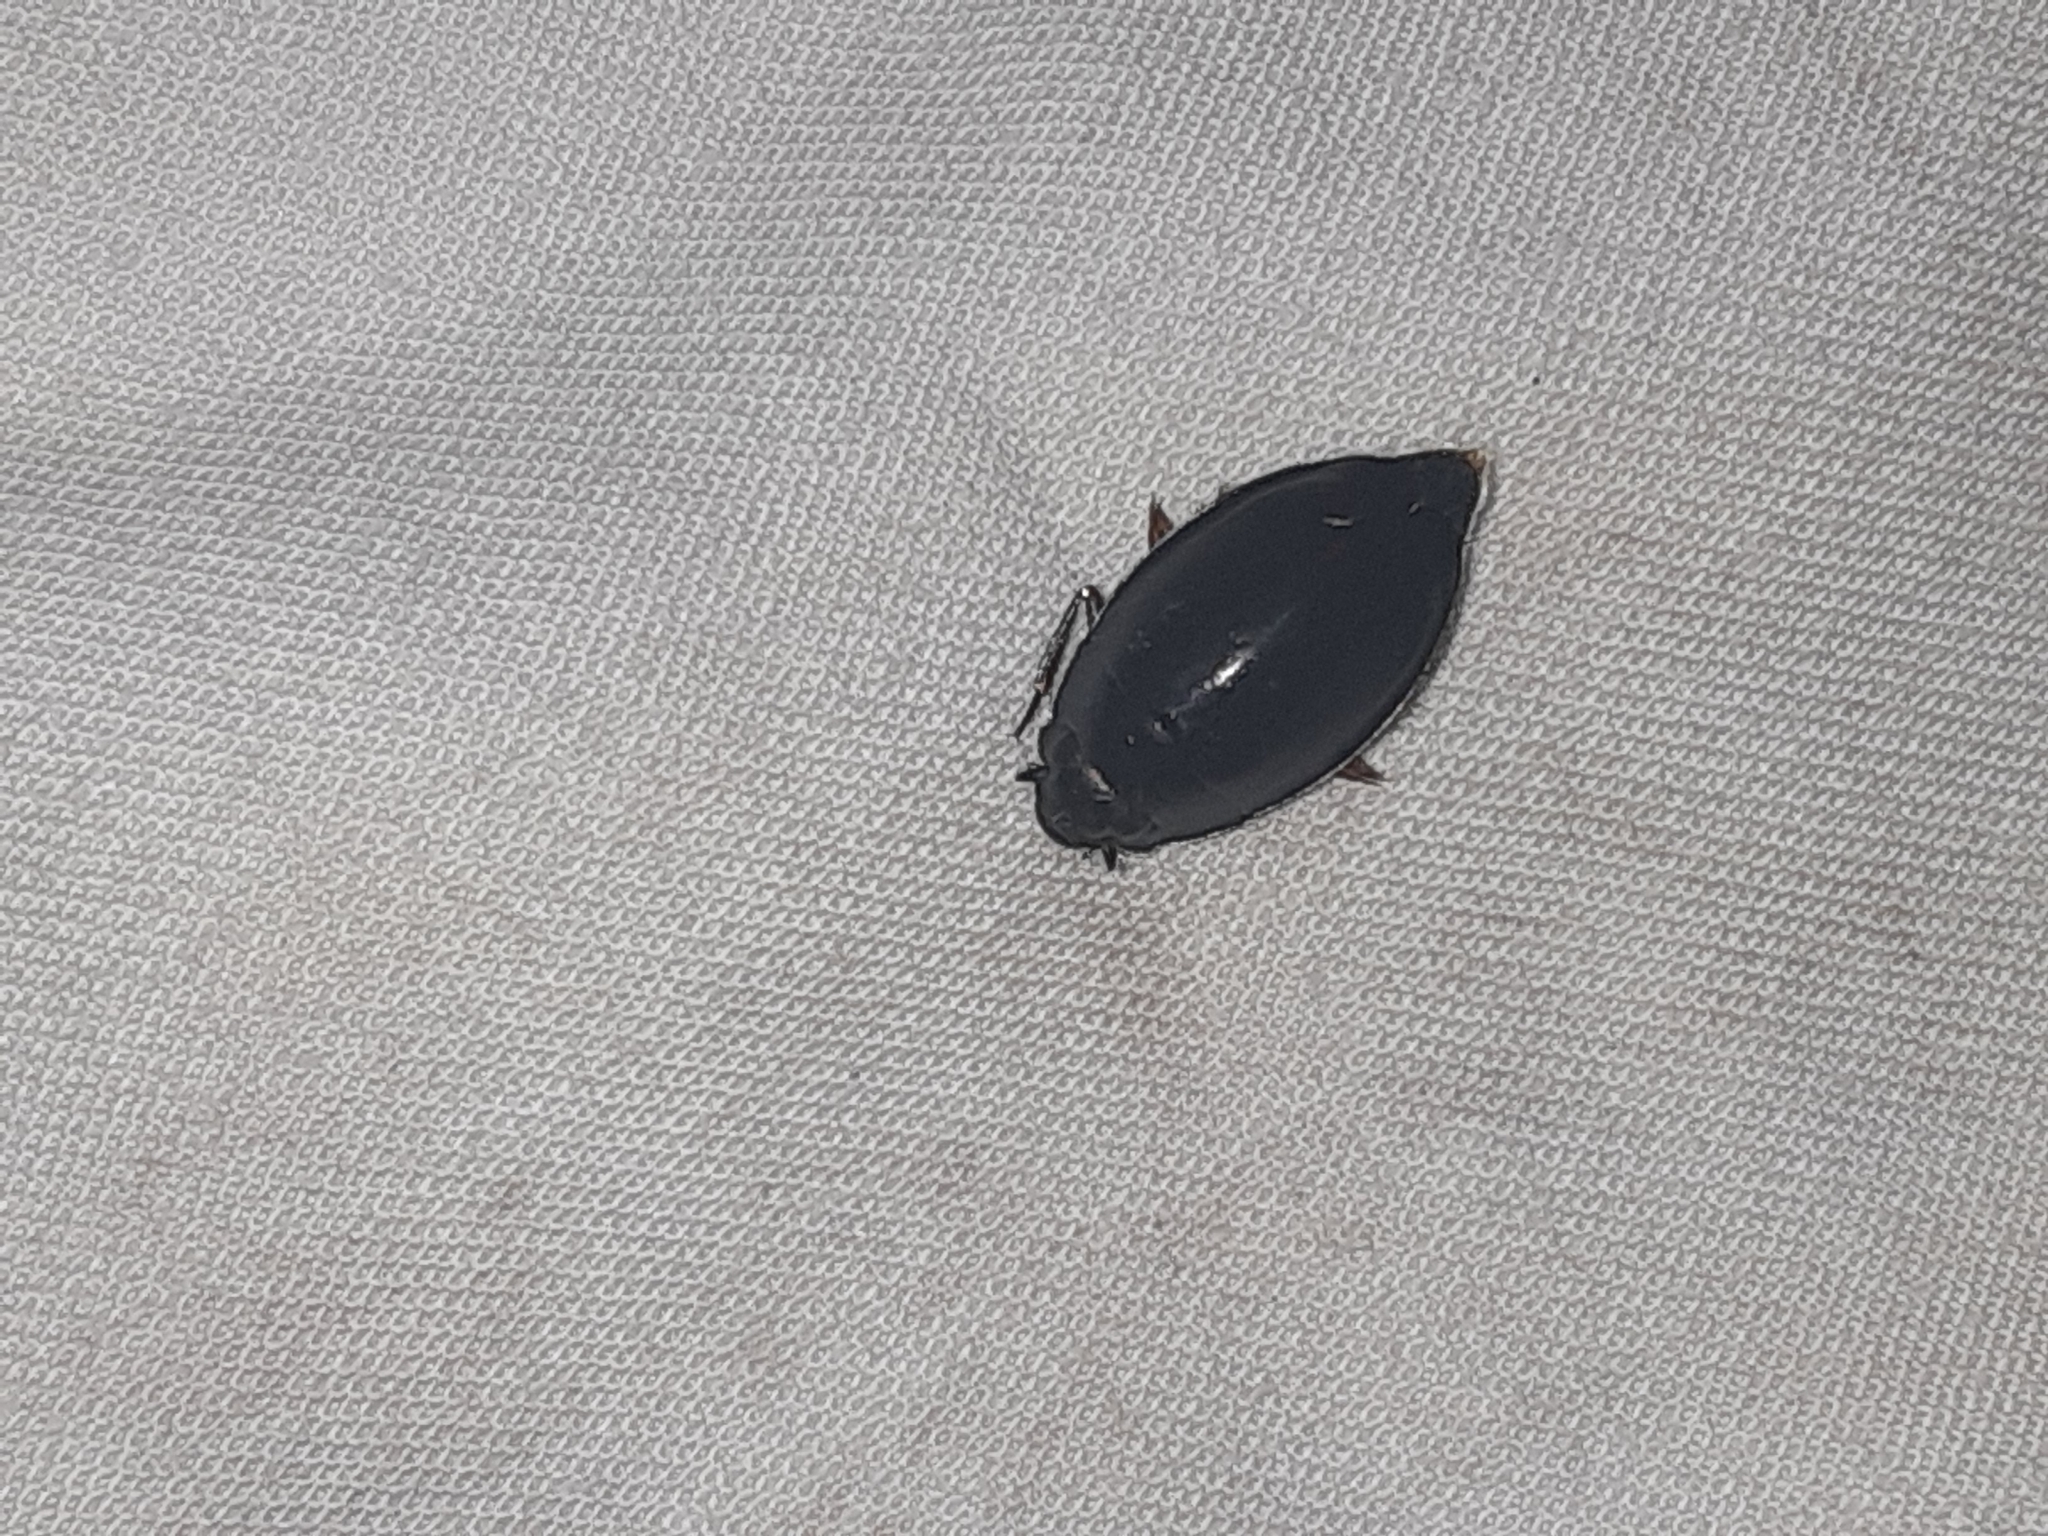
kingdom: Animalia
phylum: Arthropoda
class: Insecta
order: Coleoptera
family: Gyrinidae
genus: Dineutus
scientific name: Dineutus
